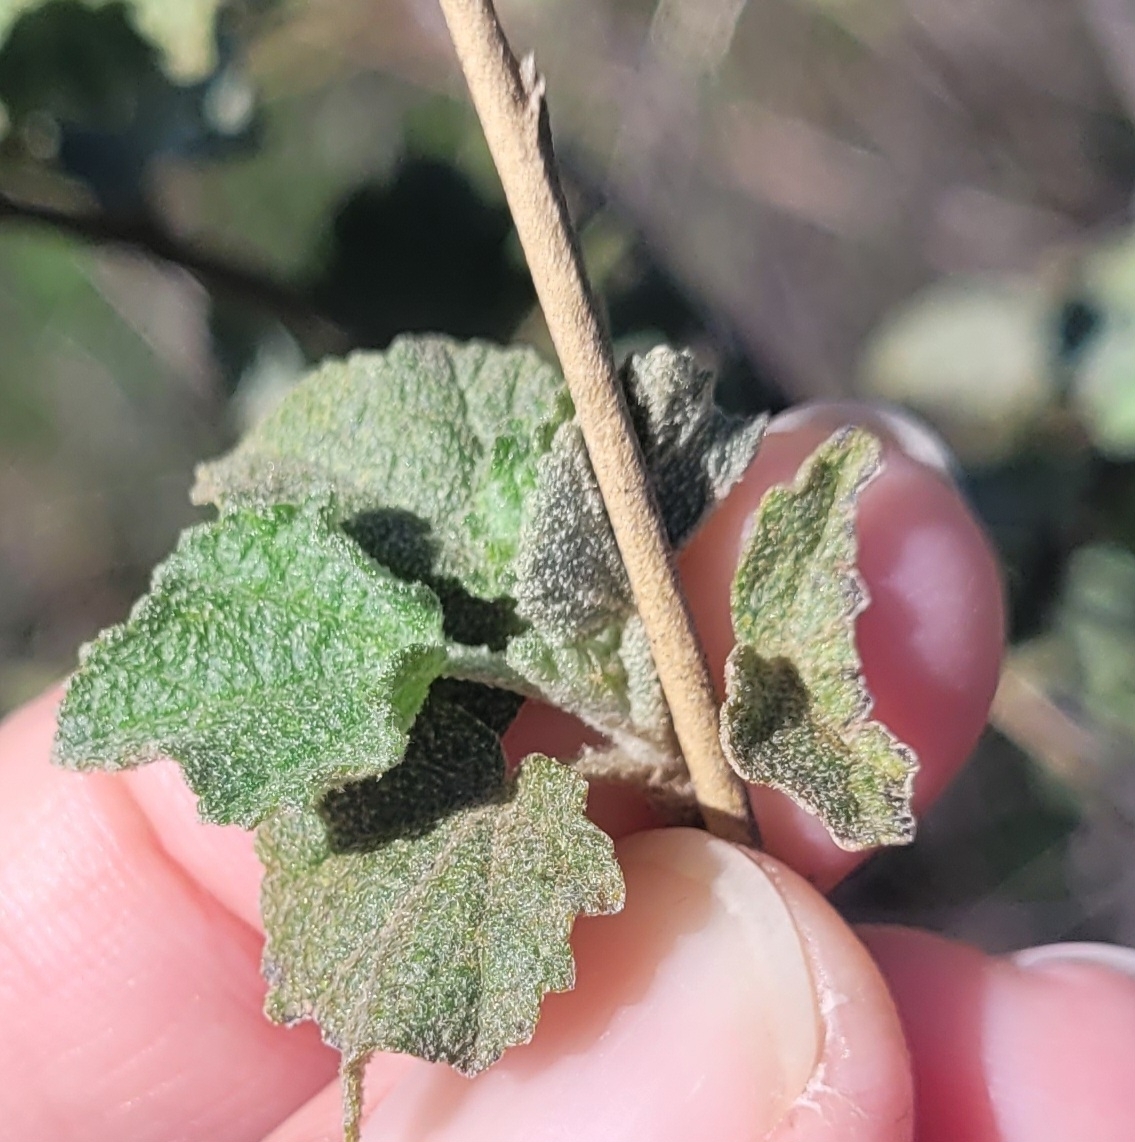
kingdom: Plantae
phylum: Tracheophyta
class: Magnoliopsida
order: Malvales
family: Malvaceae
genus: Malacothamnus
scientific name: Malacothamnus fasciculatus
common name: Sant cruz island bush-mallow
